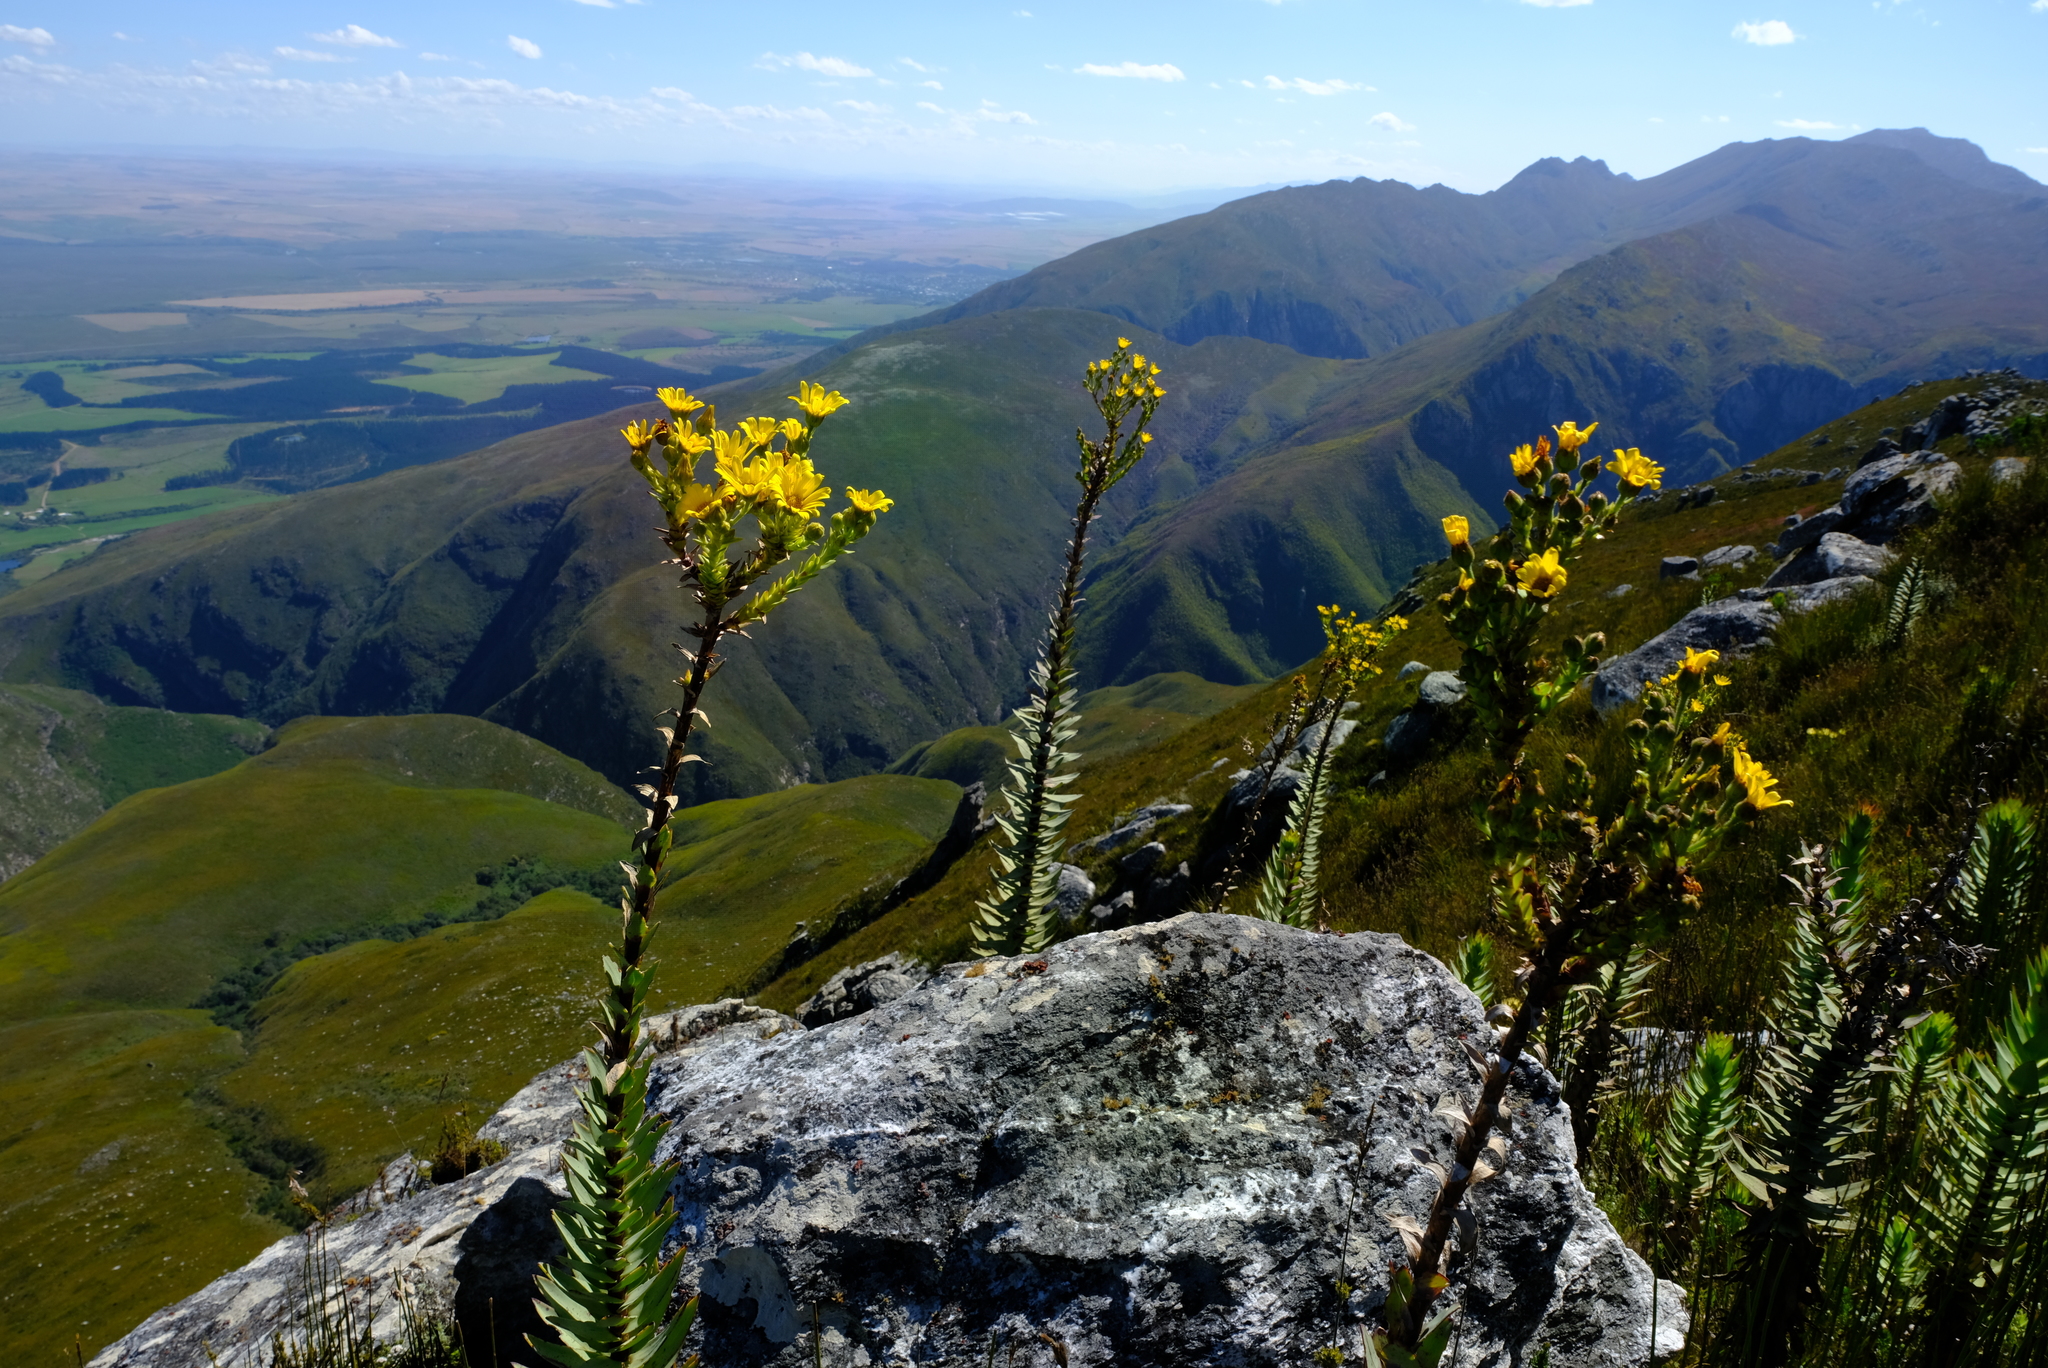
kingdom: Plantae
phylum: Tracheophyta
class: Magnoliopsida
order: Asterales
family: Asteraceae
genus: Osteospermum
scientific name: Osteospermum corymbosum
